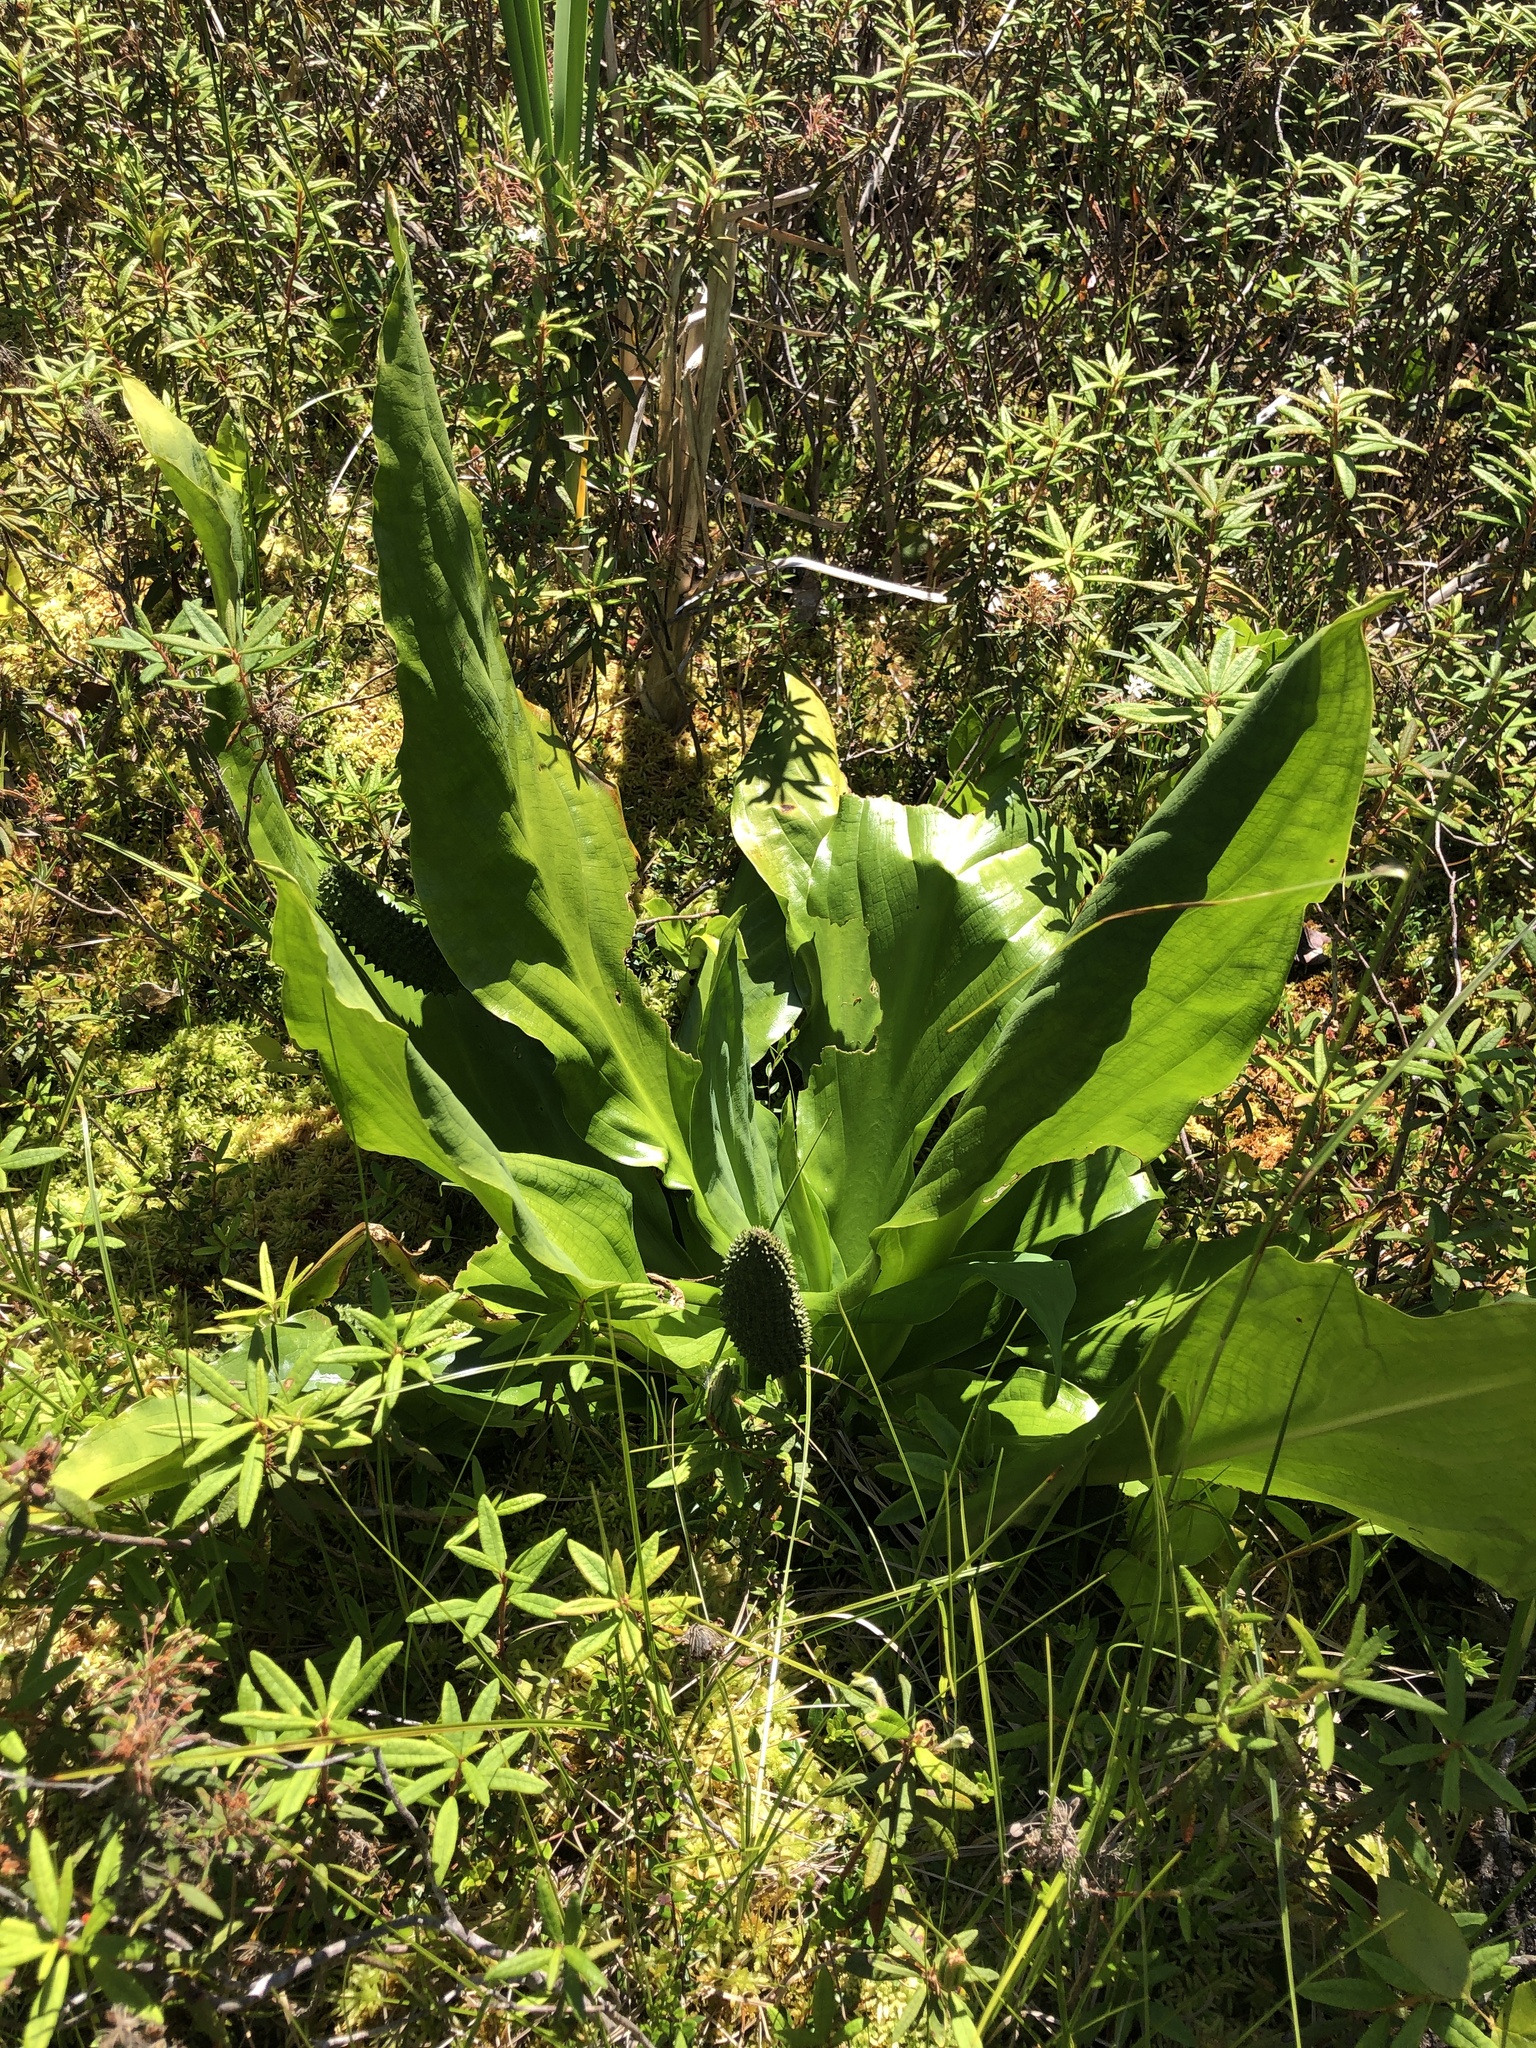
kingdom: Plantae
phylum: Tracheophyta
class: Liliopsida
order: Alismatales
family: Araceae
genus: Lysichiton
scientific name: Lysichiton americanus
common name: American skunk cabbage
